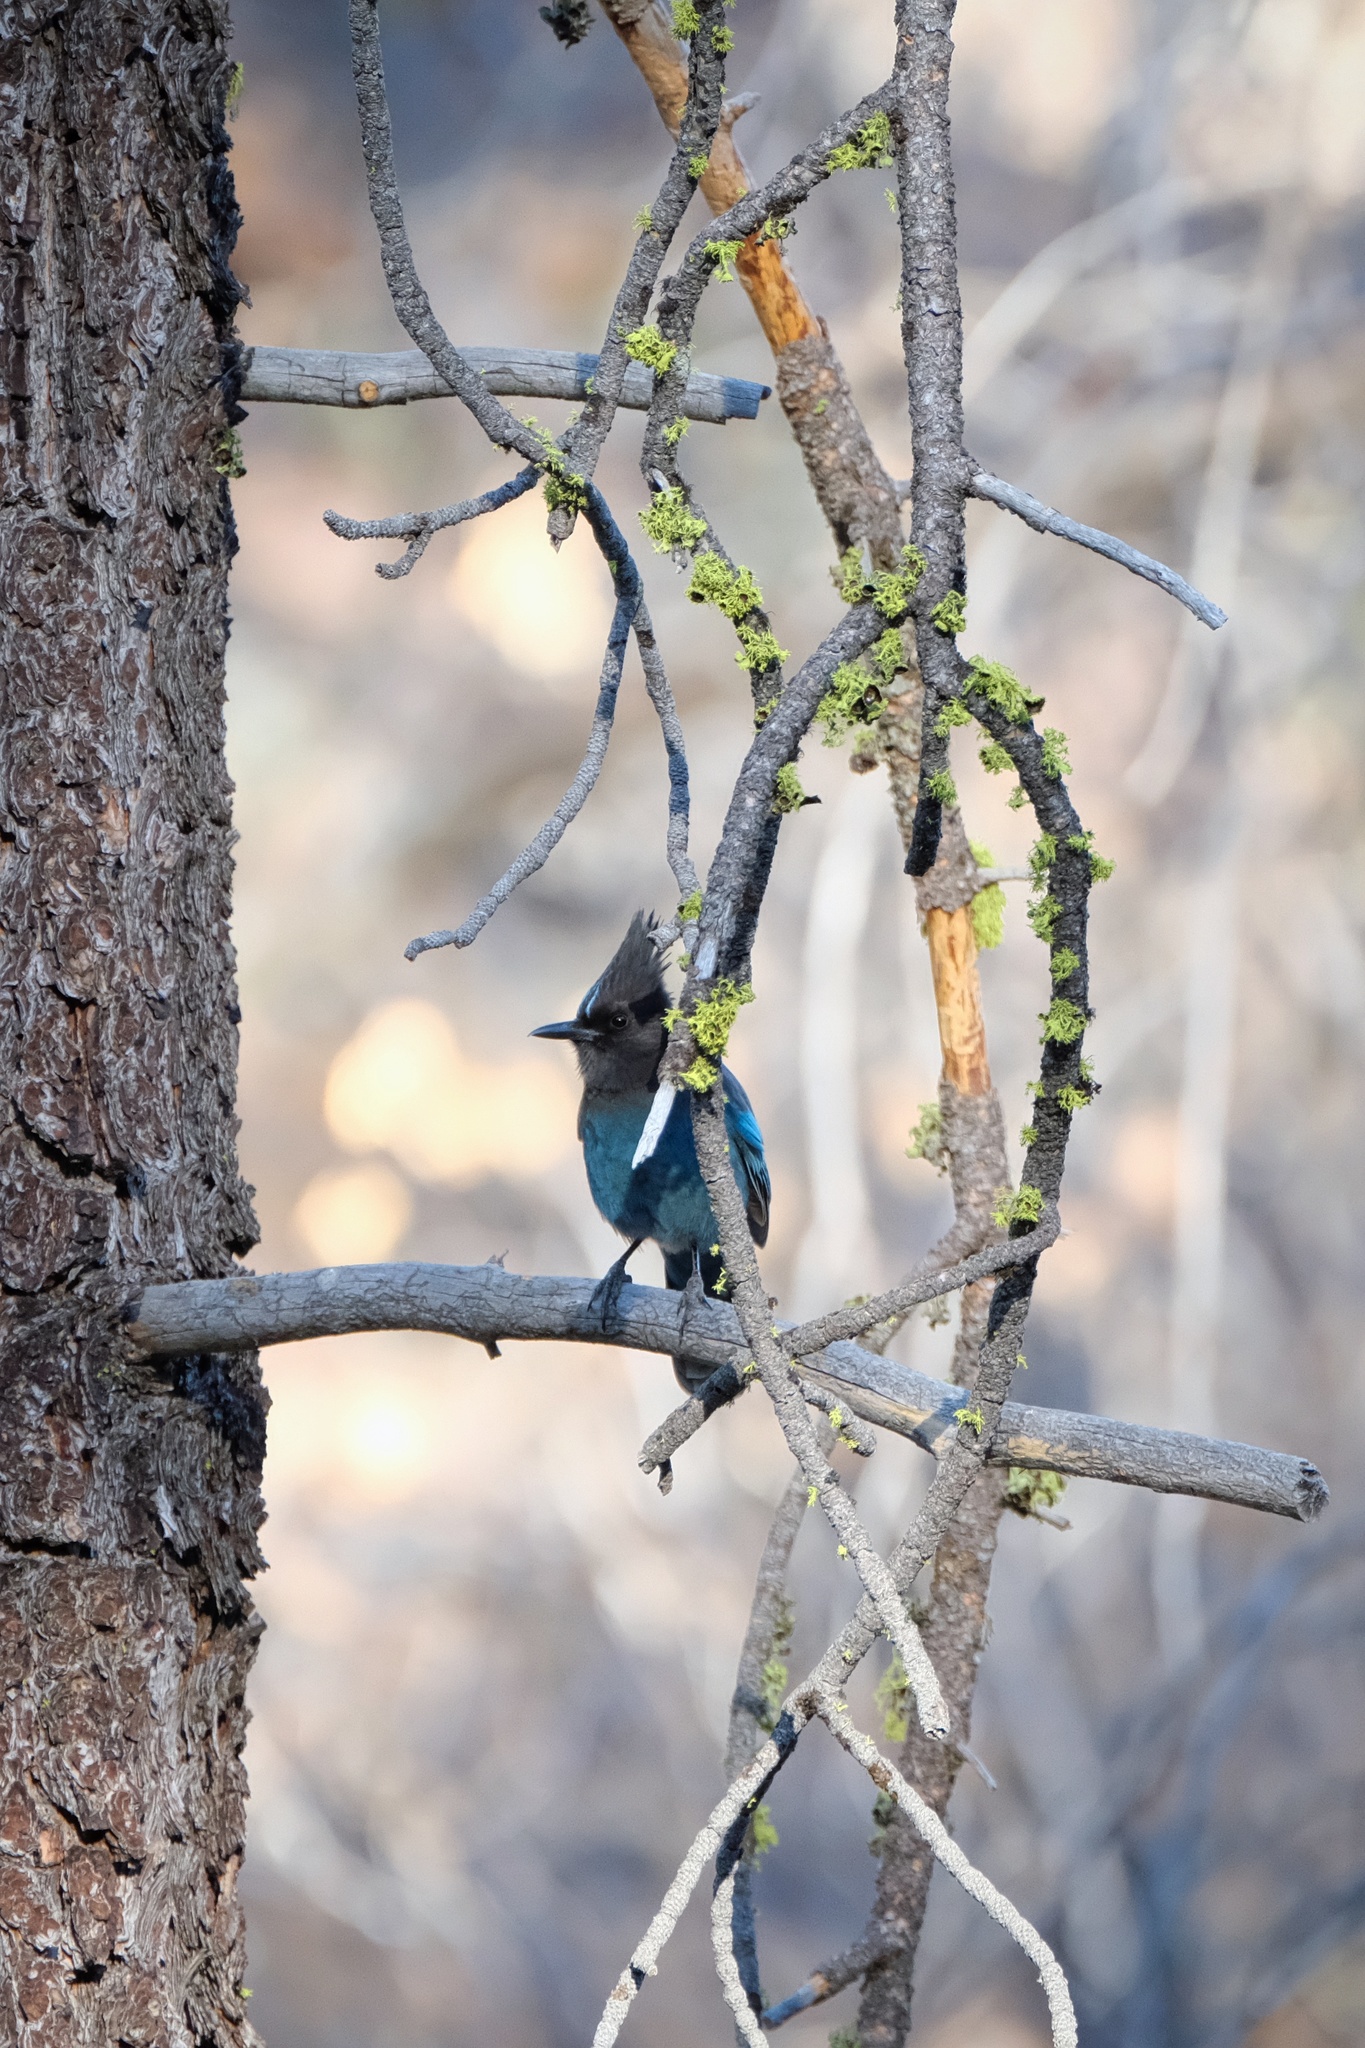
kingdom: Animalia
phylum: Chordata
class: Aves
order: Passeriformes
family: Corvidae
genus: Cyanocitta
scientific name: Cyanocitta stelleri
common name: Steller's jay
